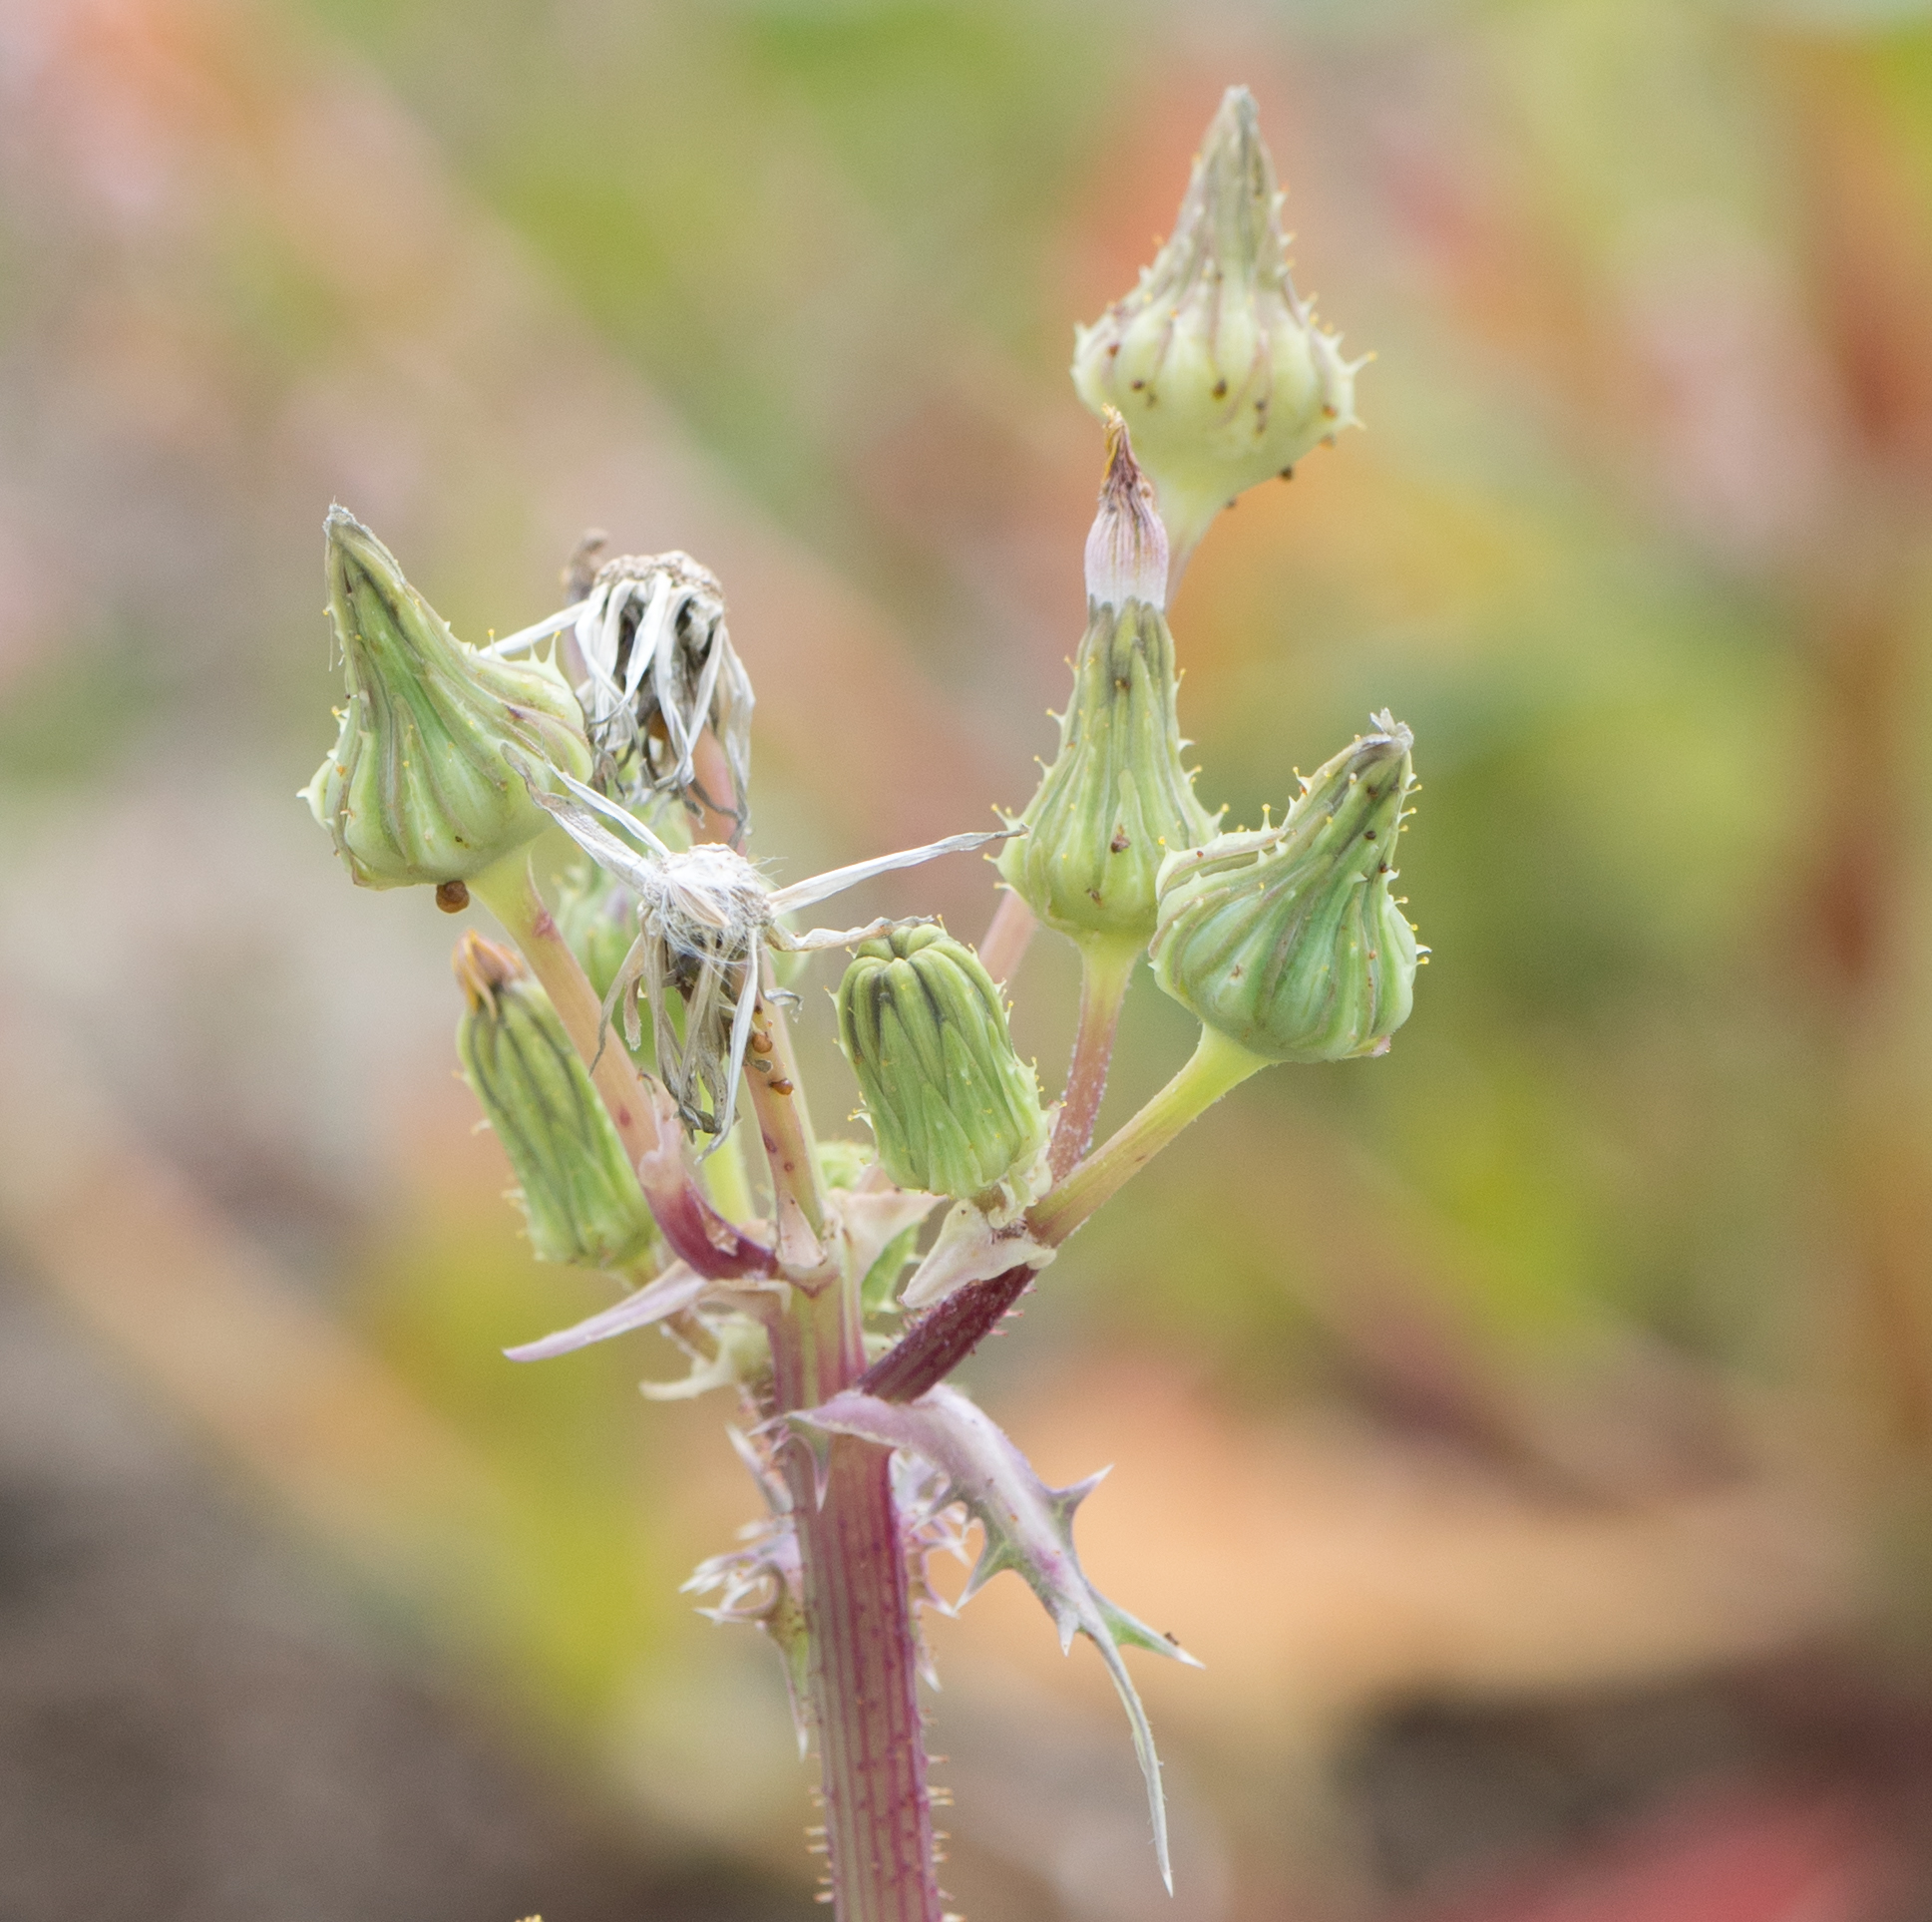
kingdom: Plantae
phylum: Tracheophyta
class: Magnoliopsida
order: Asterales
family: Asteraceae
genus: Sonchus
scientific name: Sonchus asper
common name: Prickly sow-thistle
